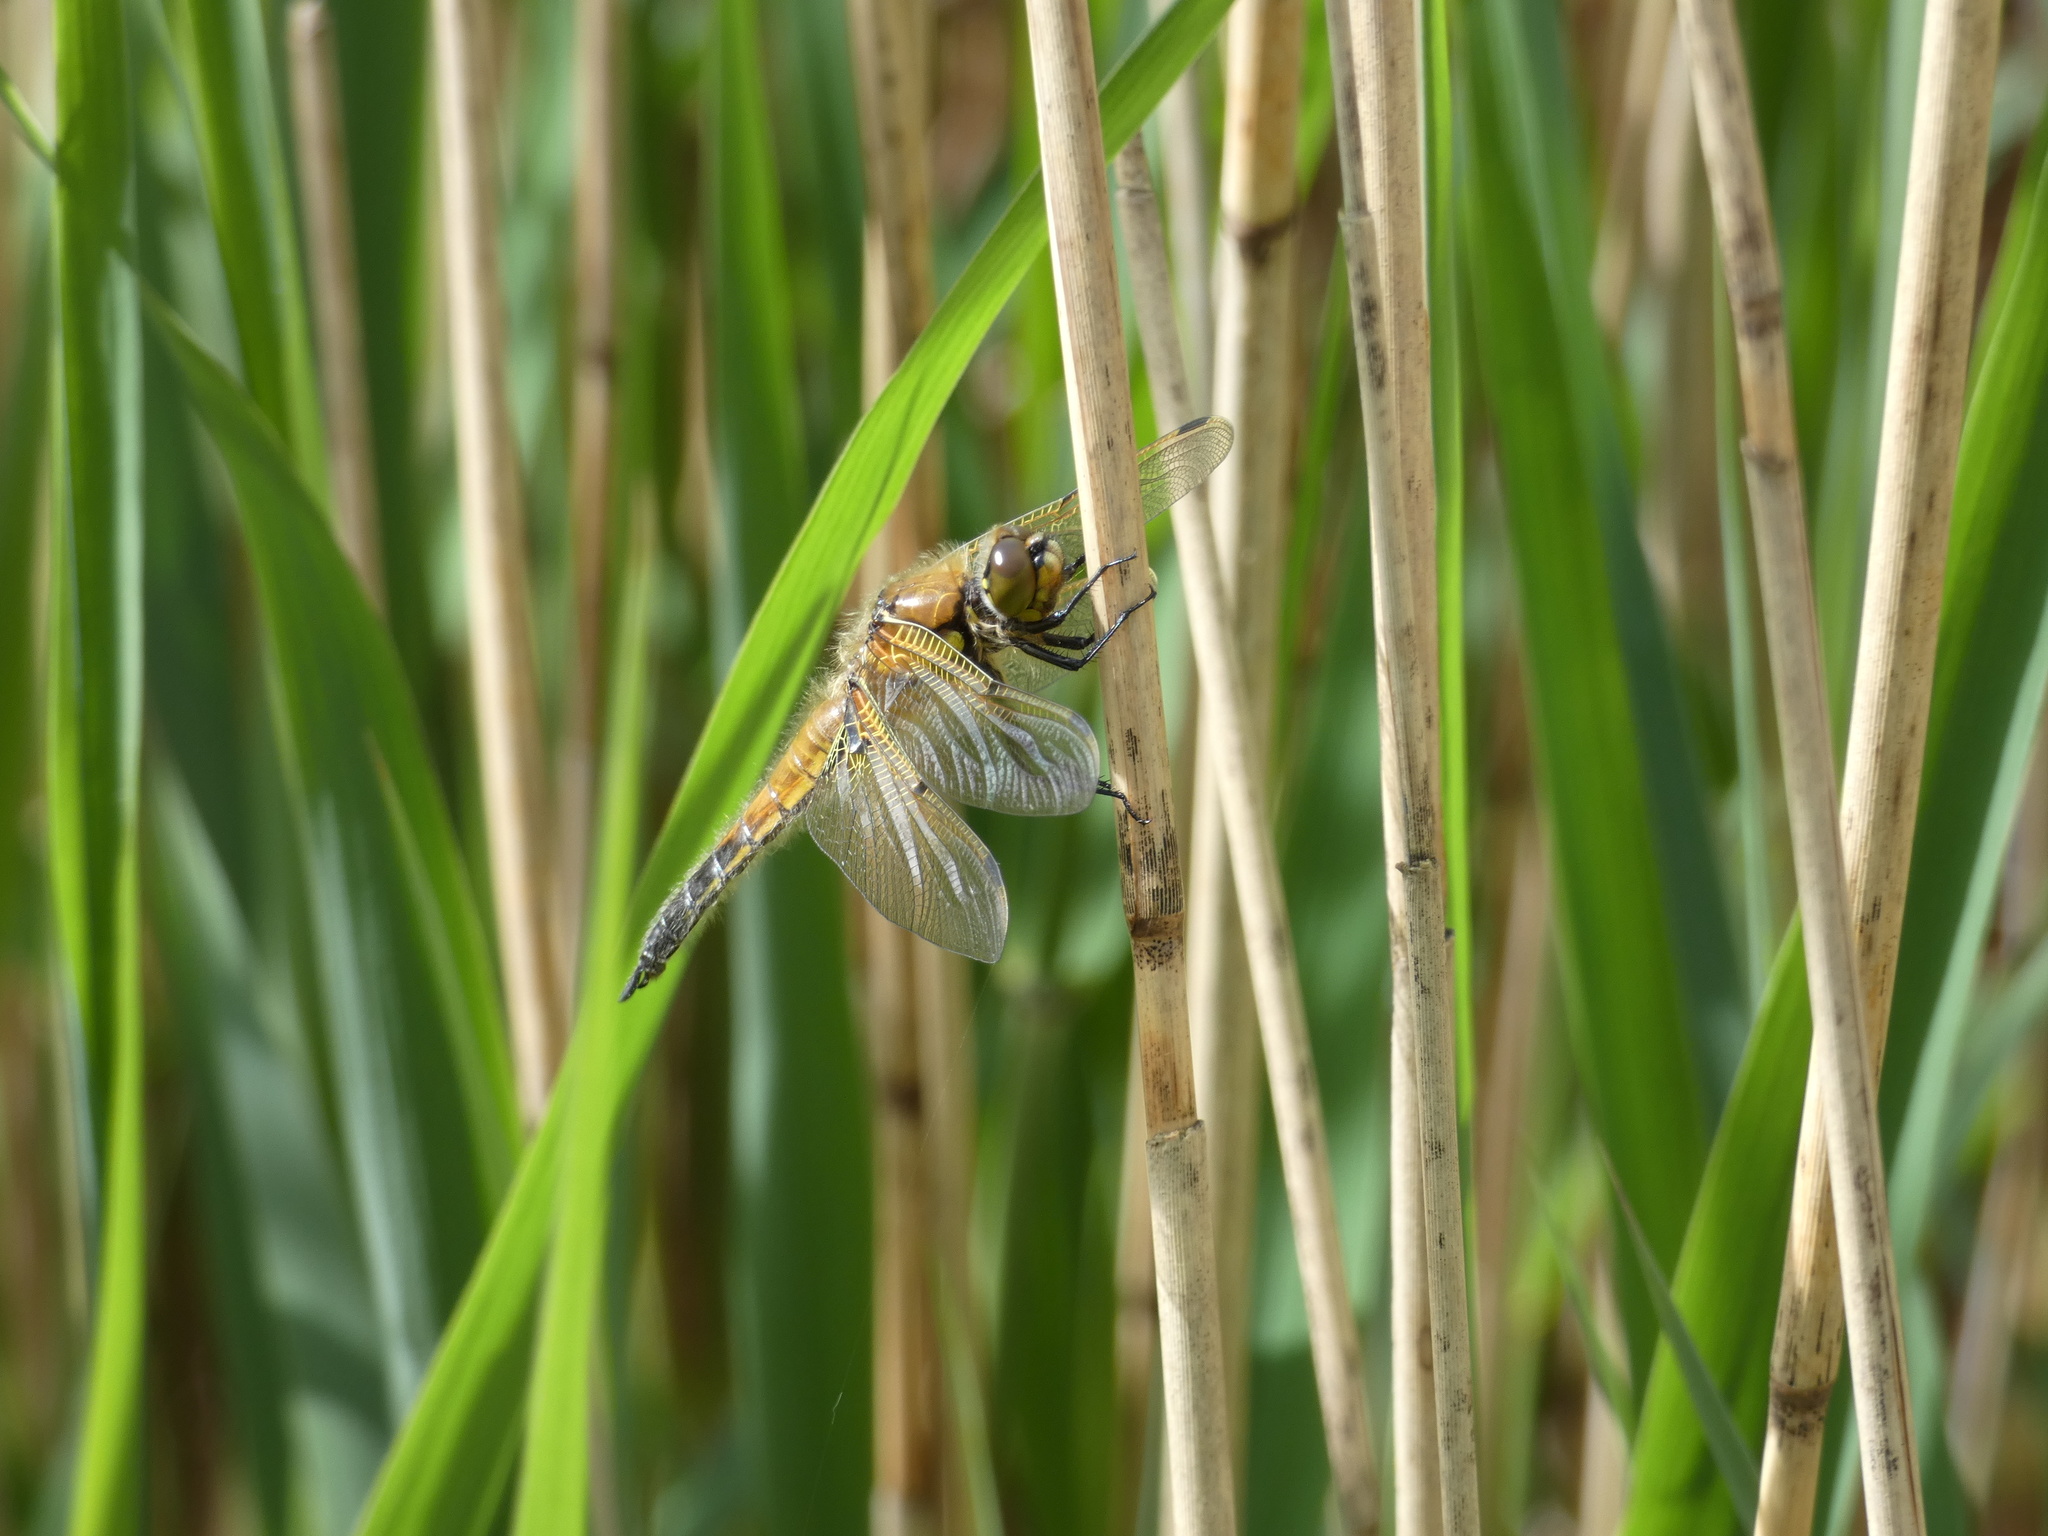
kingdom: Animalia
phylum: Arthropoda
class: Insecta
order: Odonata
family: Libellulidae
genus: Libellula
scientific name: Libellula quadrimaculata
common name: Four-spotted chaser
